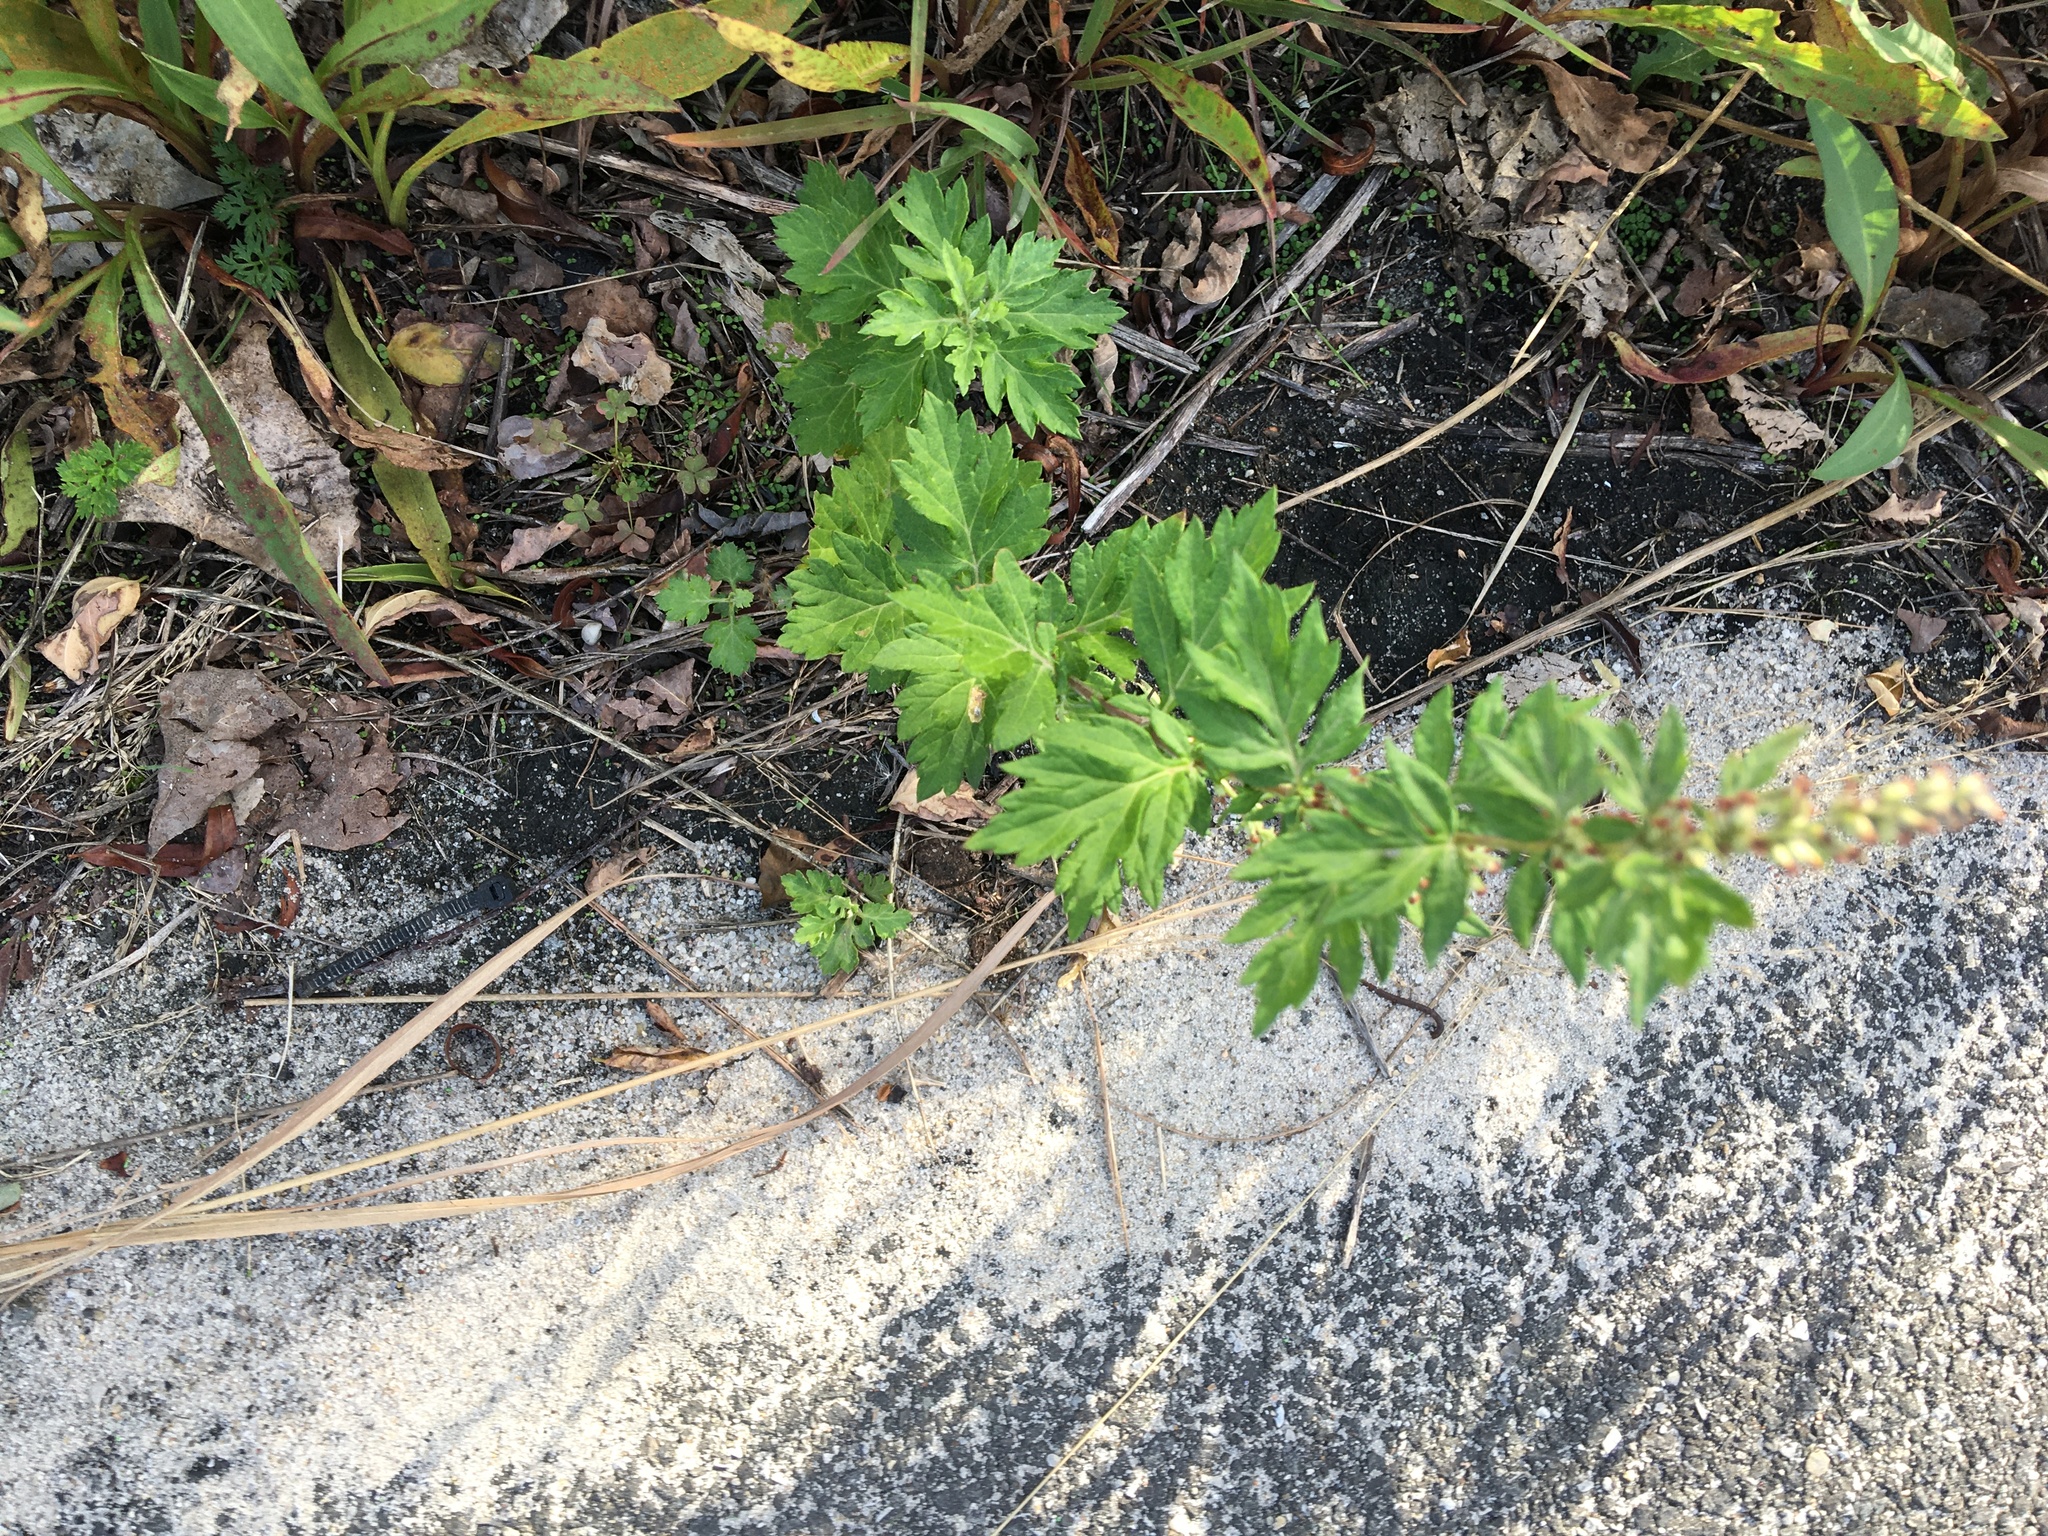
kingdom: Plantae
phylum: Tracheophyta
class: Magnoliopsida
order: Asterales
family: Asteraceae
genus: Artemisia
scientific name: Artemisia vulgaris
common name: Mugwort
